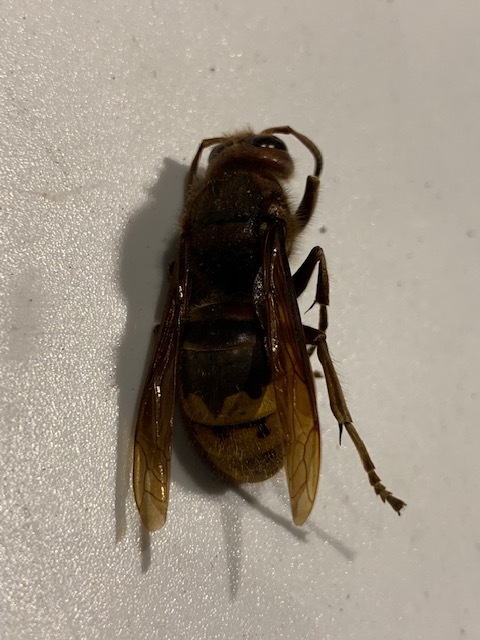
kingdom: Animalia
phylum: Arthropoda
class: Insecta
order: Hymenoptera
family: Vespidae
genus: Vespa
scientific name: Vespa crabro
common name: Hornet
